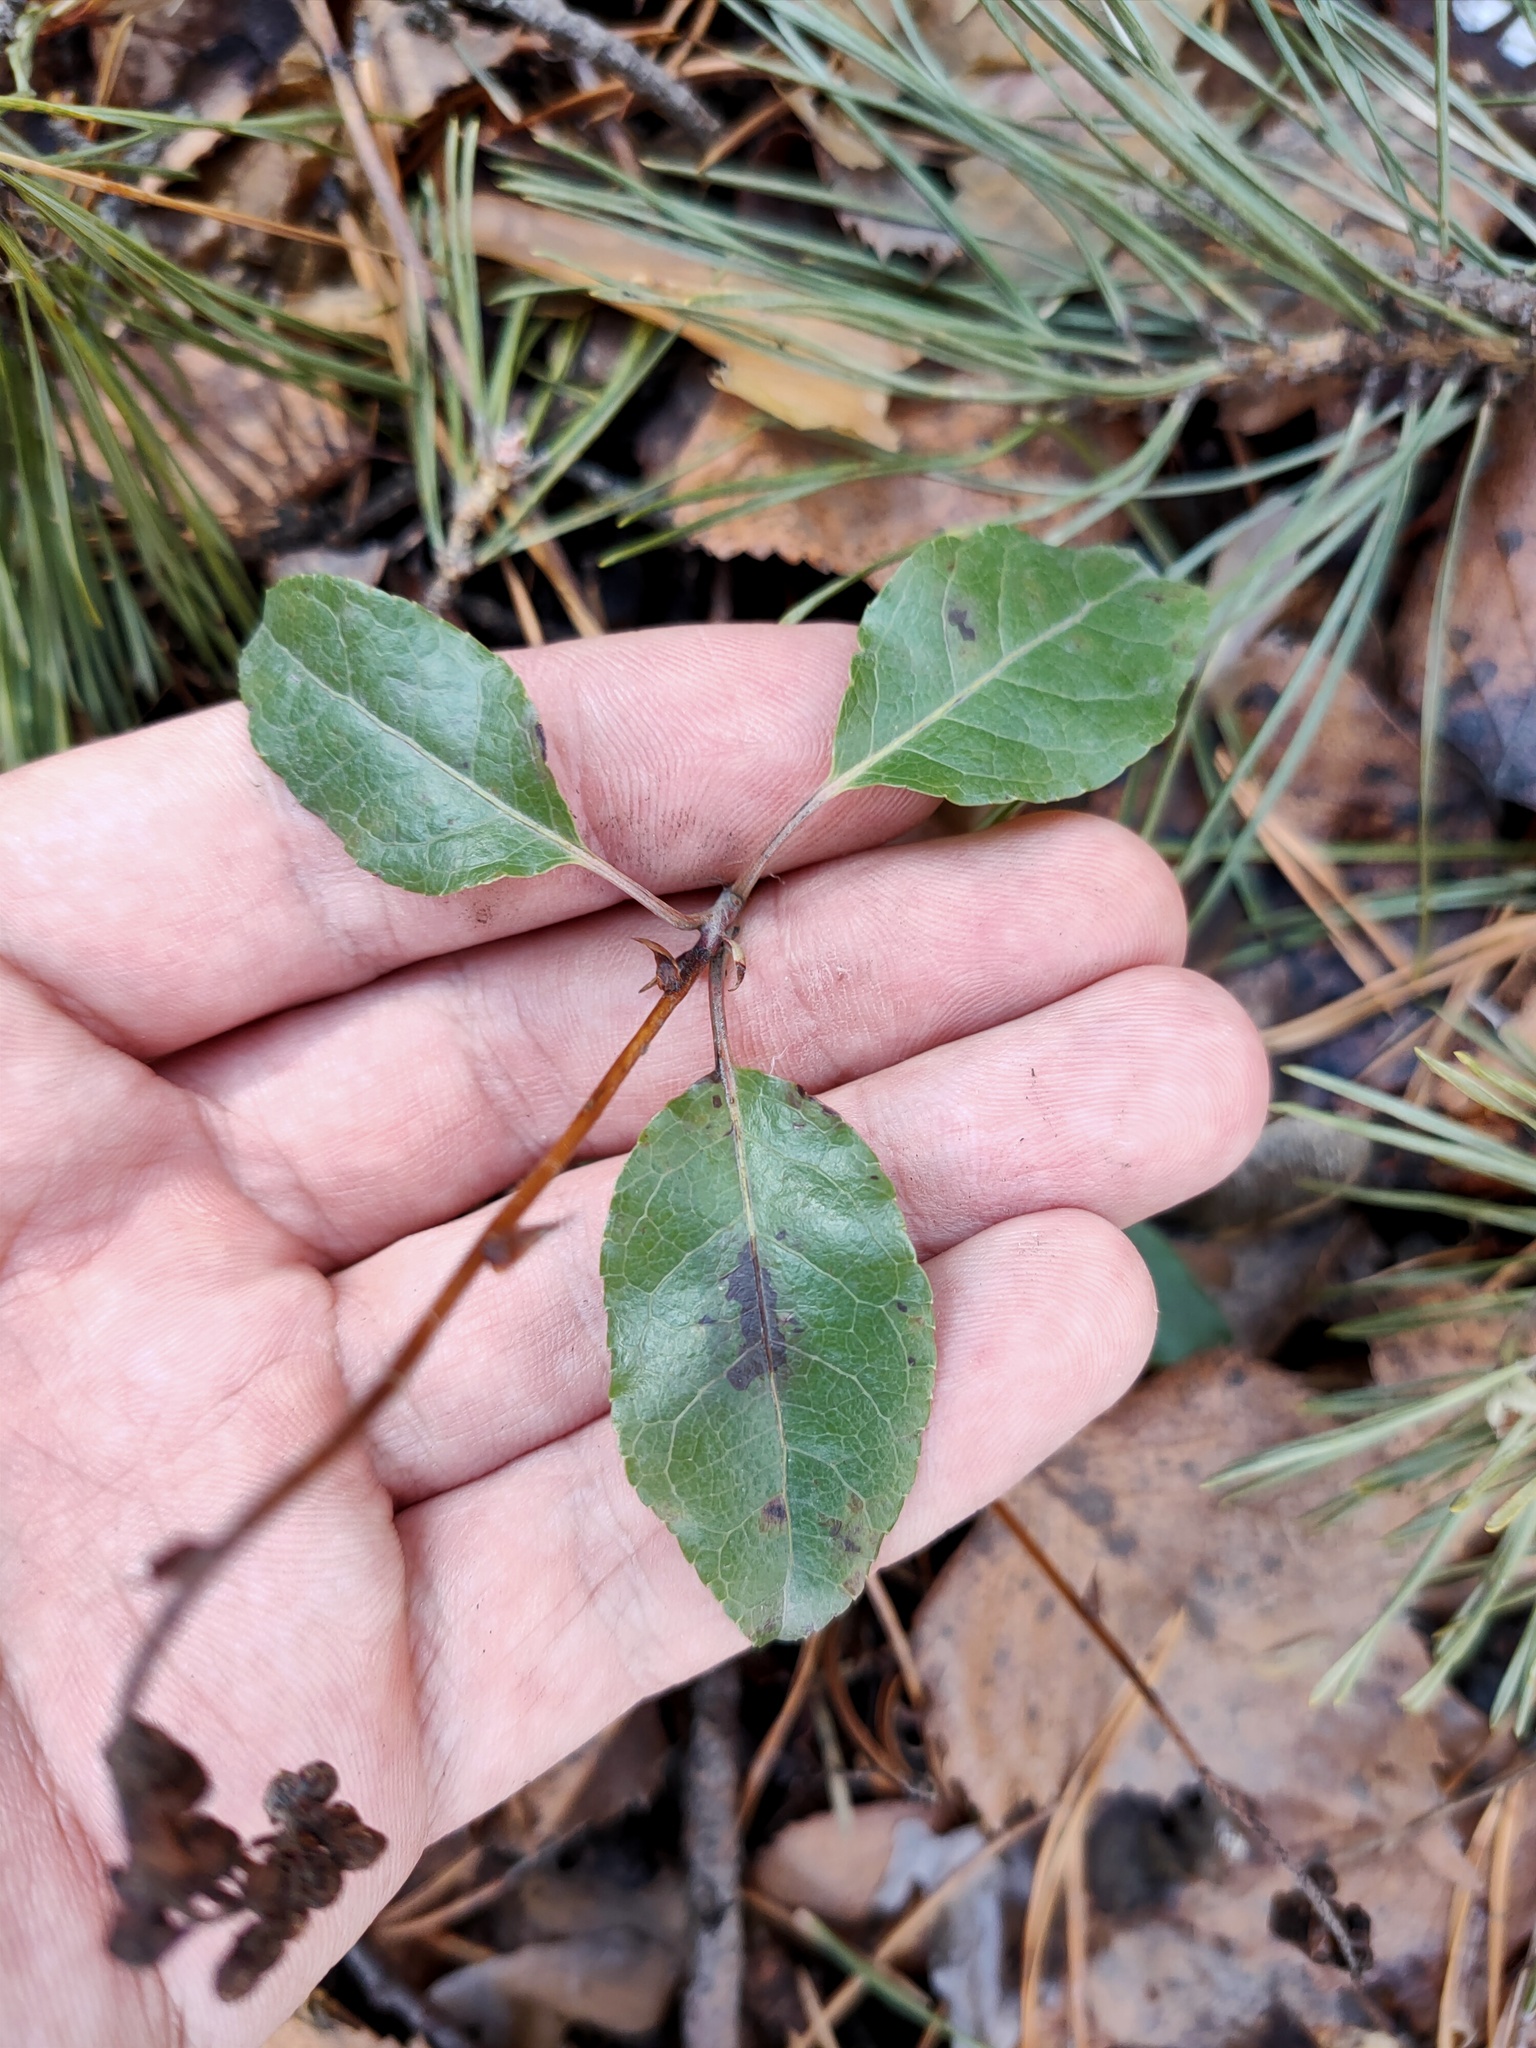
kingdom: Plantae
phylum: Tracheophyta
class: Magnoliopsida
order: Ericales
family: Ericaceae
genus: Orthilia
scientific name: Orthilia secunda
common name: One-sided orthilia
